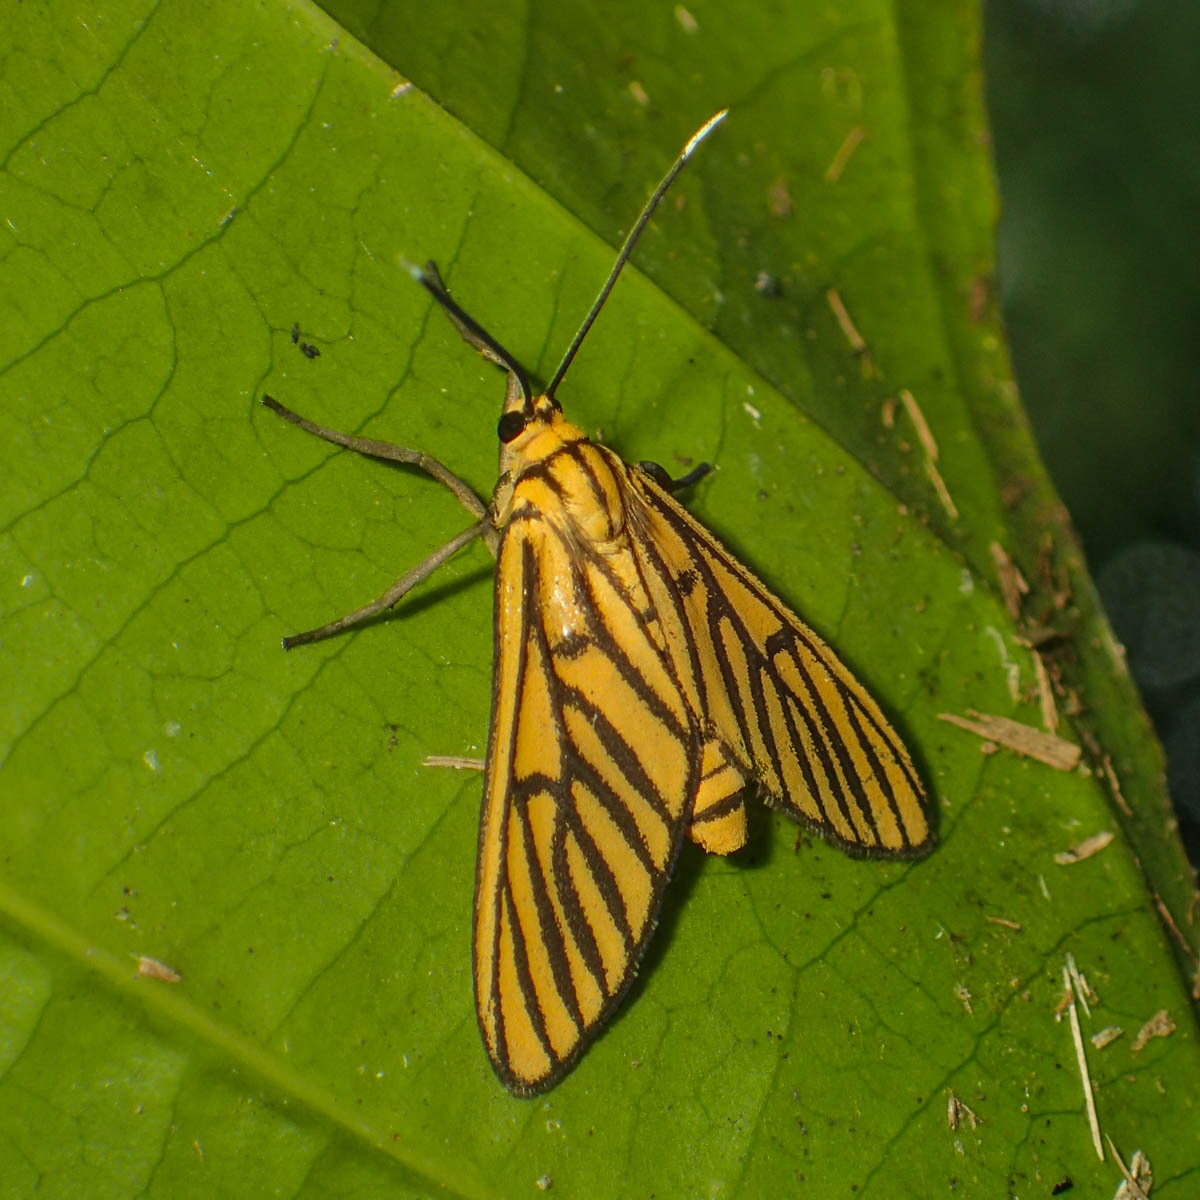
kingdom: Animalia
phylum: Arthropoda
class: Insecta
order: Lepidoptera
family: Erebidae
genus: Amata
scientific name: Amata tigrina
